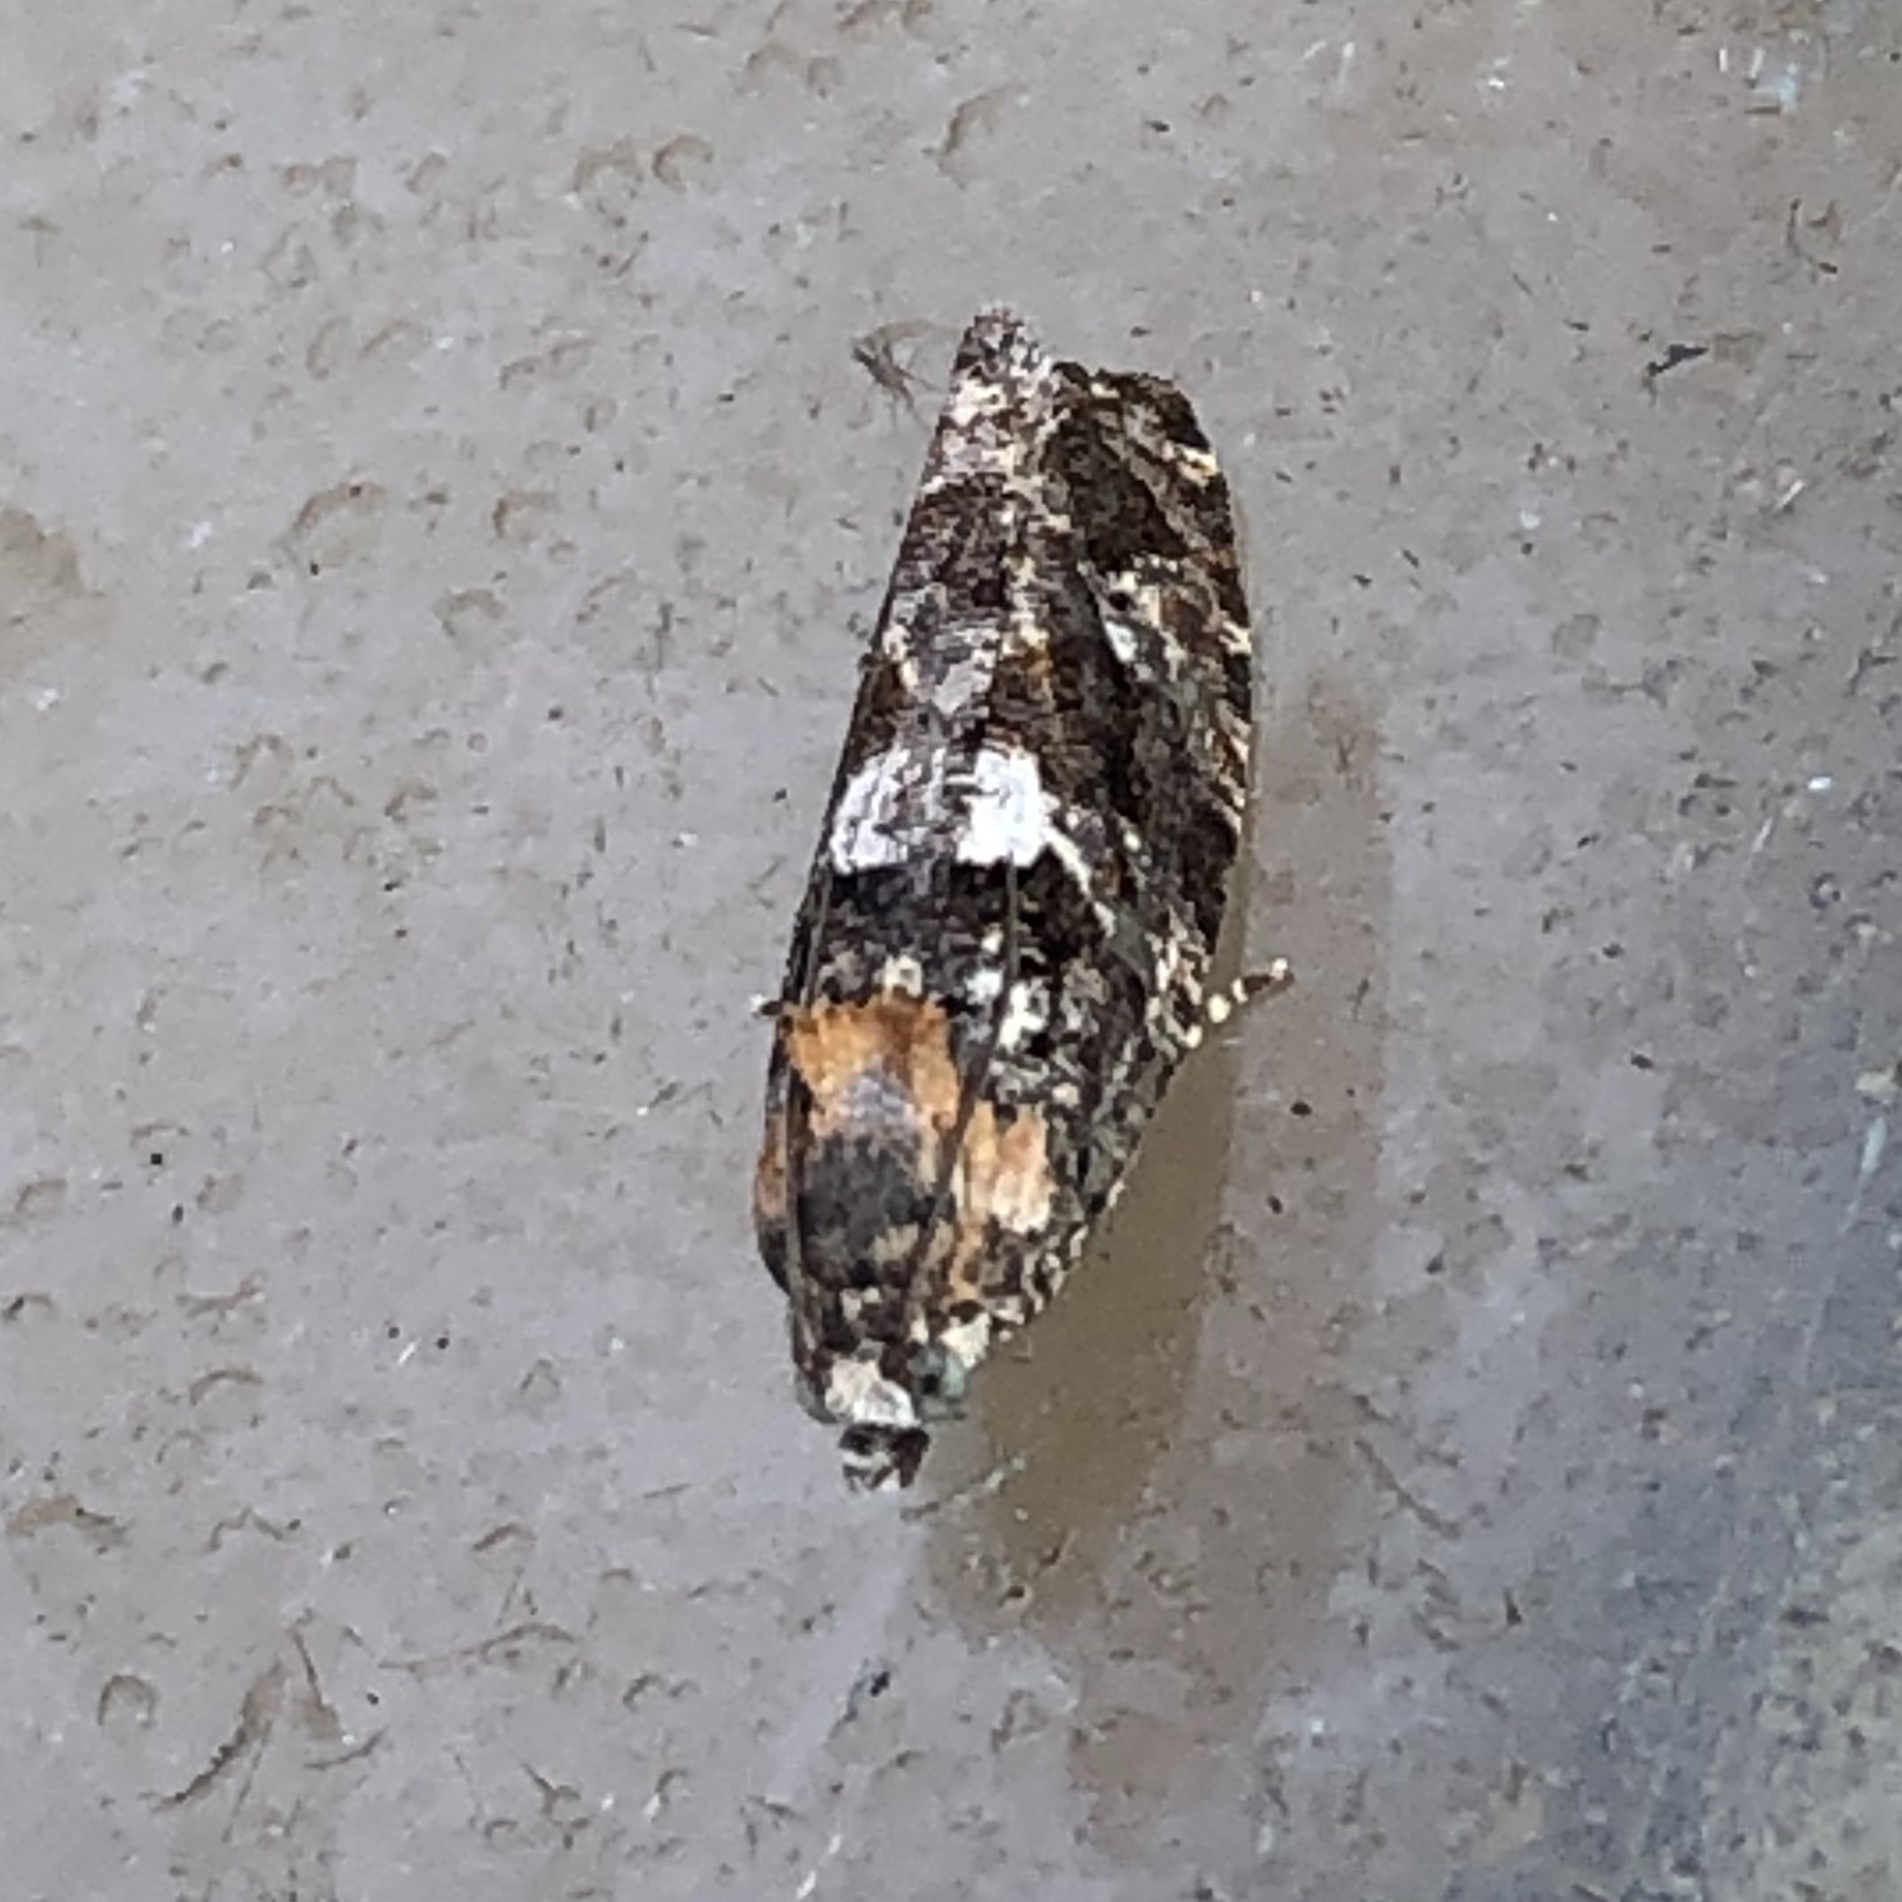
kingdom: Animalia
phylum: Arthropoda
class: Insecta
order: Lepidoptera
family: Tortricidae
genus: Eudemis
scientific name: Eudemis profundana
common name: Diamond-back marble
